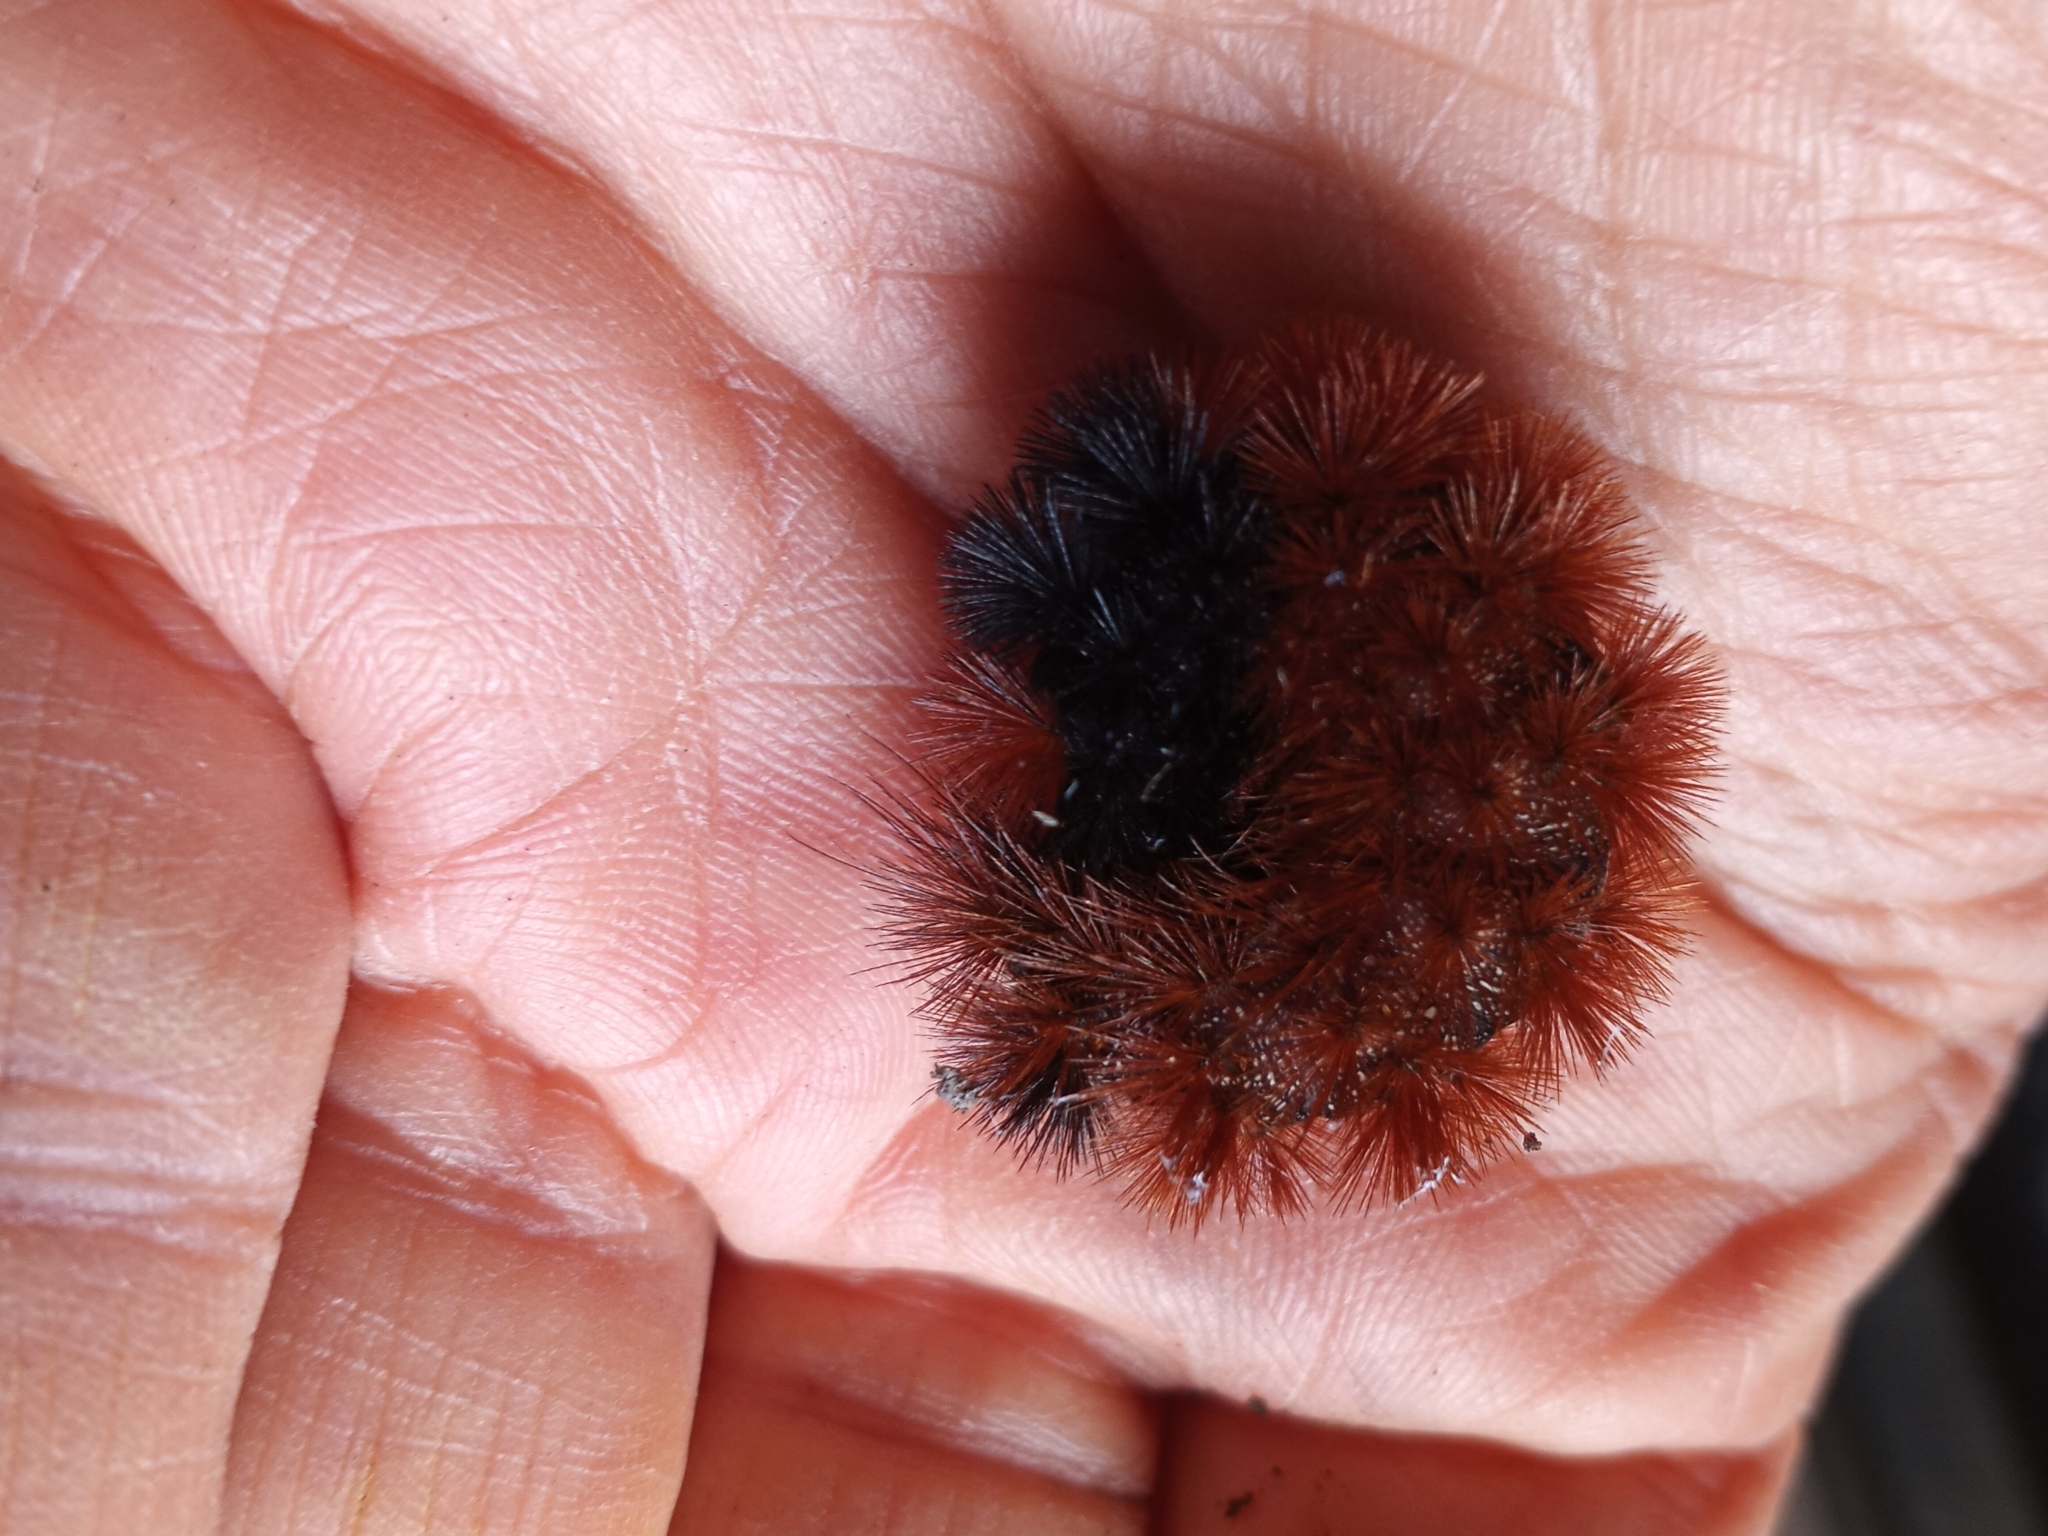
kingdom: Animalia
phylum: Arthropoda
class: Insecta
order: Lepidoptera
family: Erebidae
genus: Pyrrharctia
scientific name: Pyrrharctia isabella
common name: Isabella tiger moth
